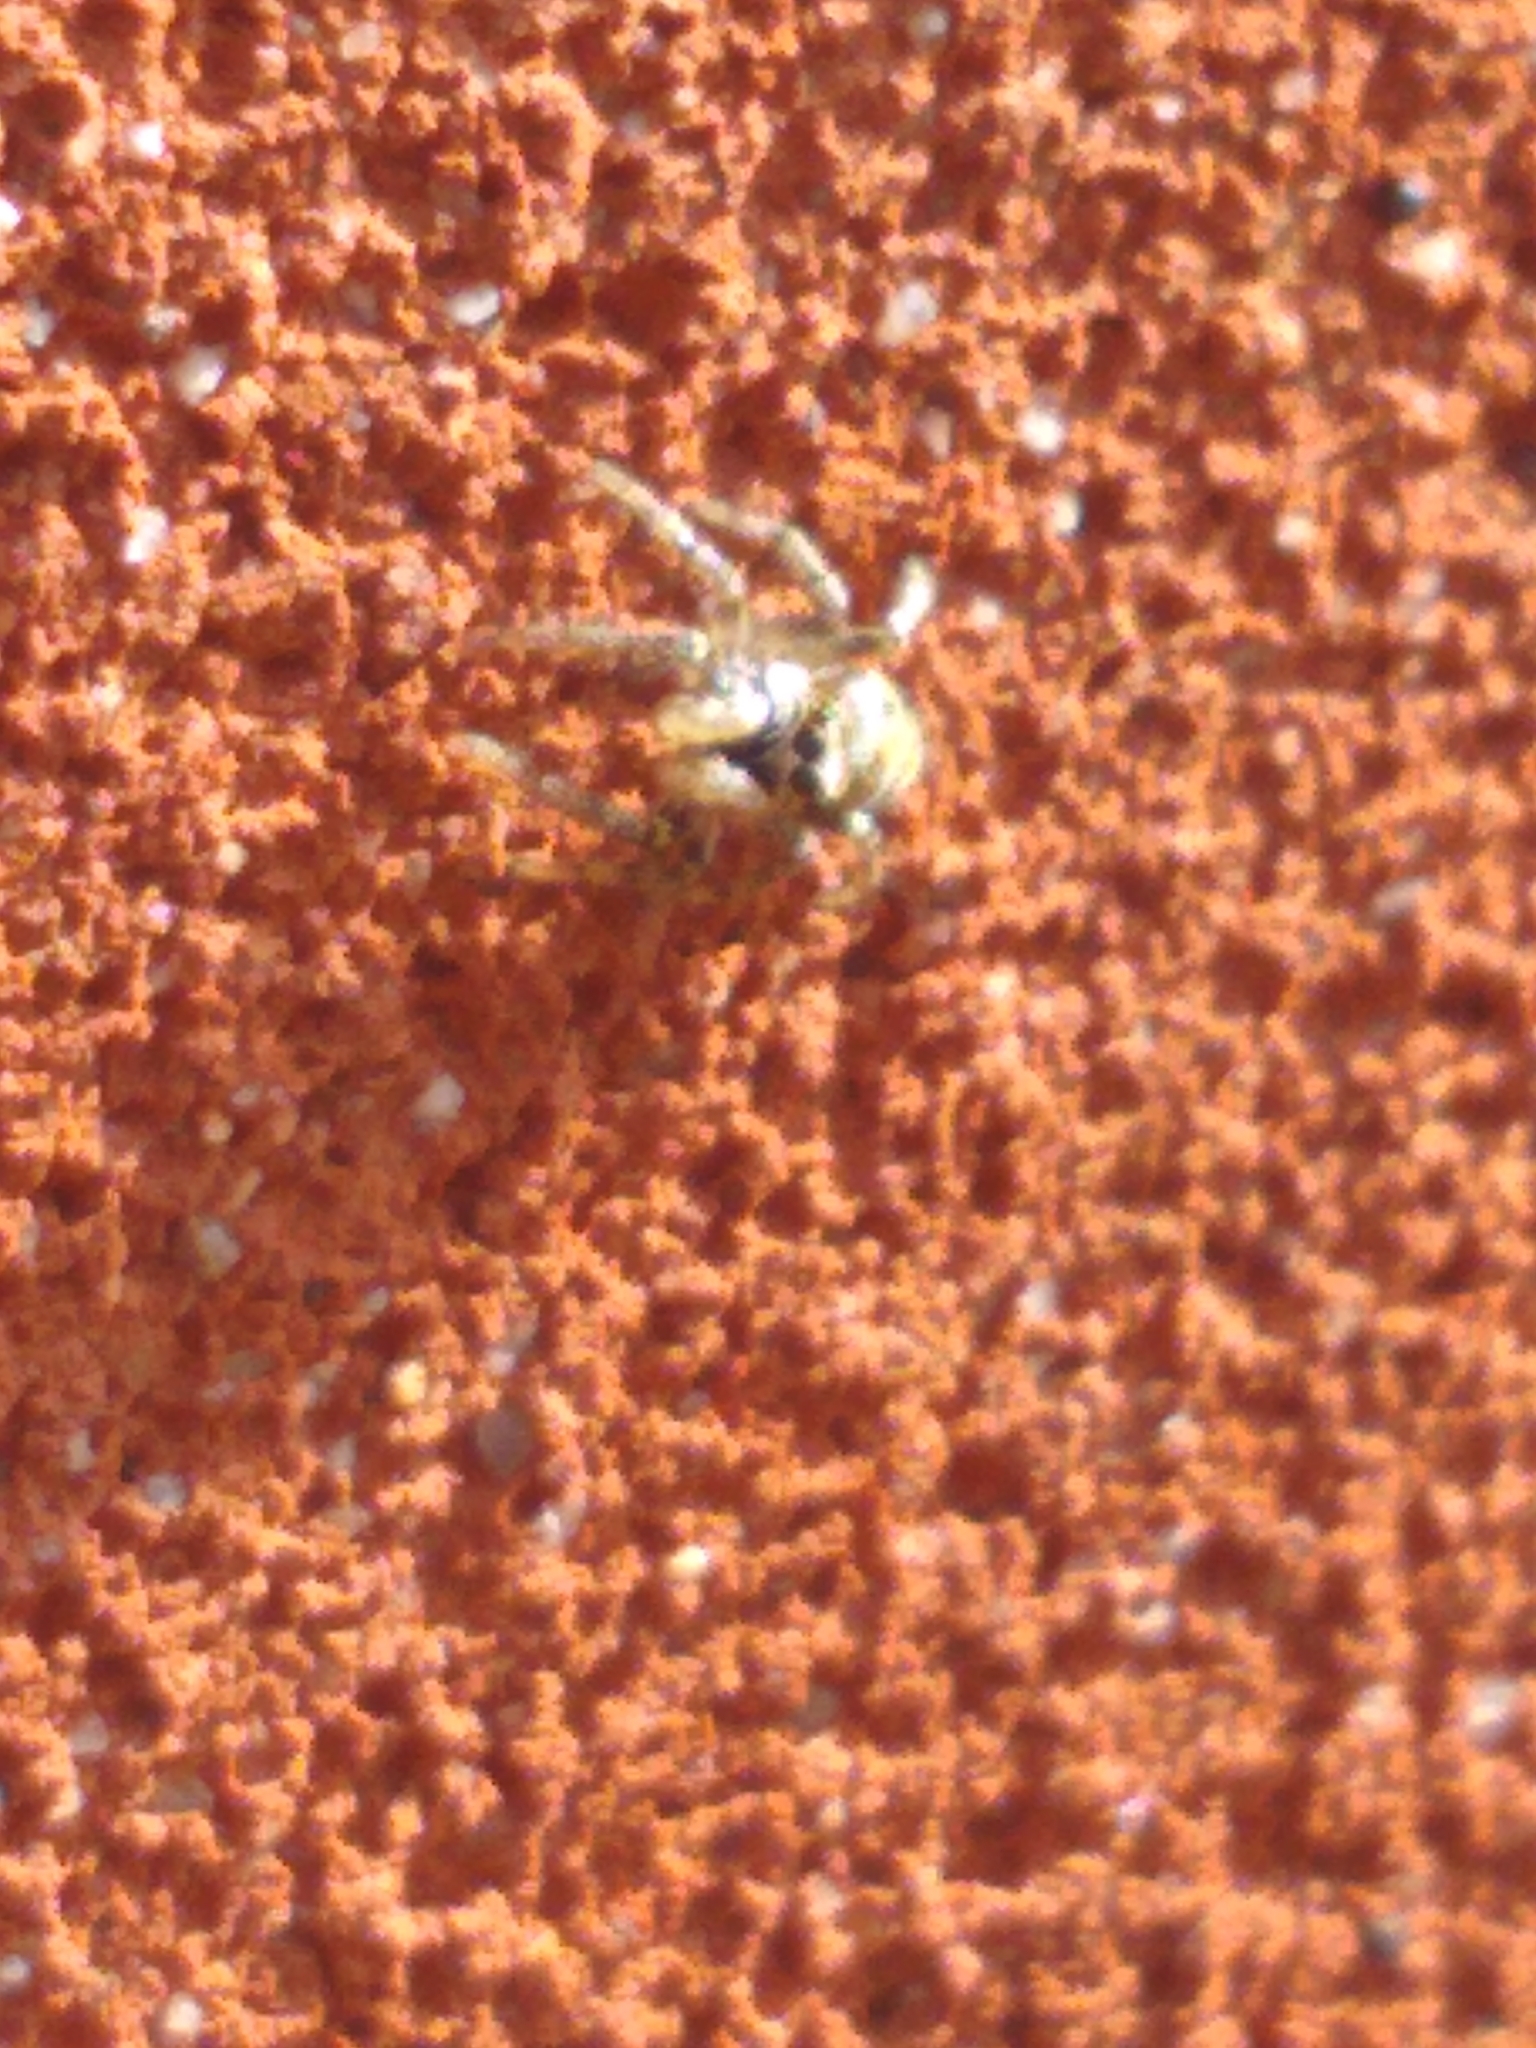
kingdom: Animalia
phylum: Arthropoda
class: Arachnida
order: Araneae
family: Salticidae
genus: Salticus
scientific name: Salticus scenicus
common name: Zebra jumper
